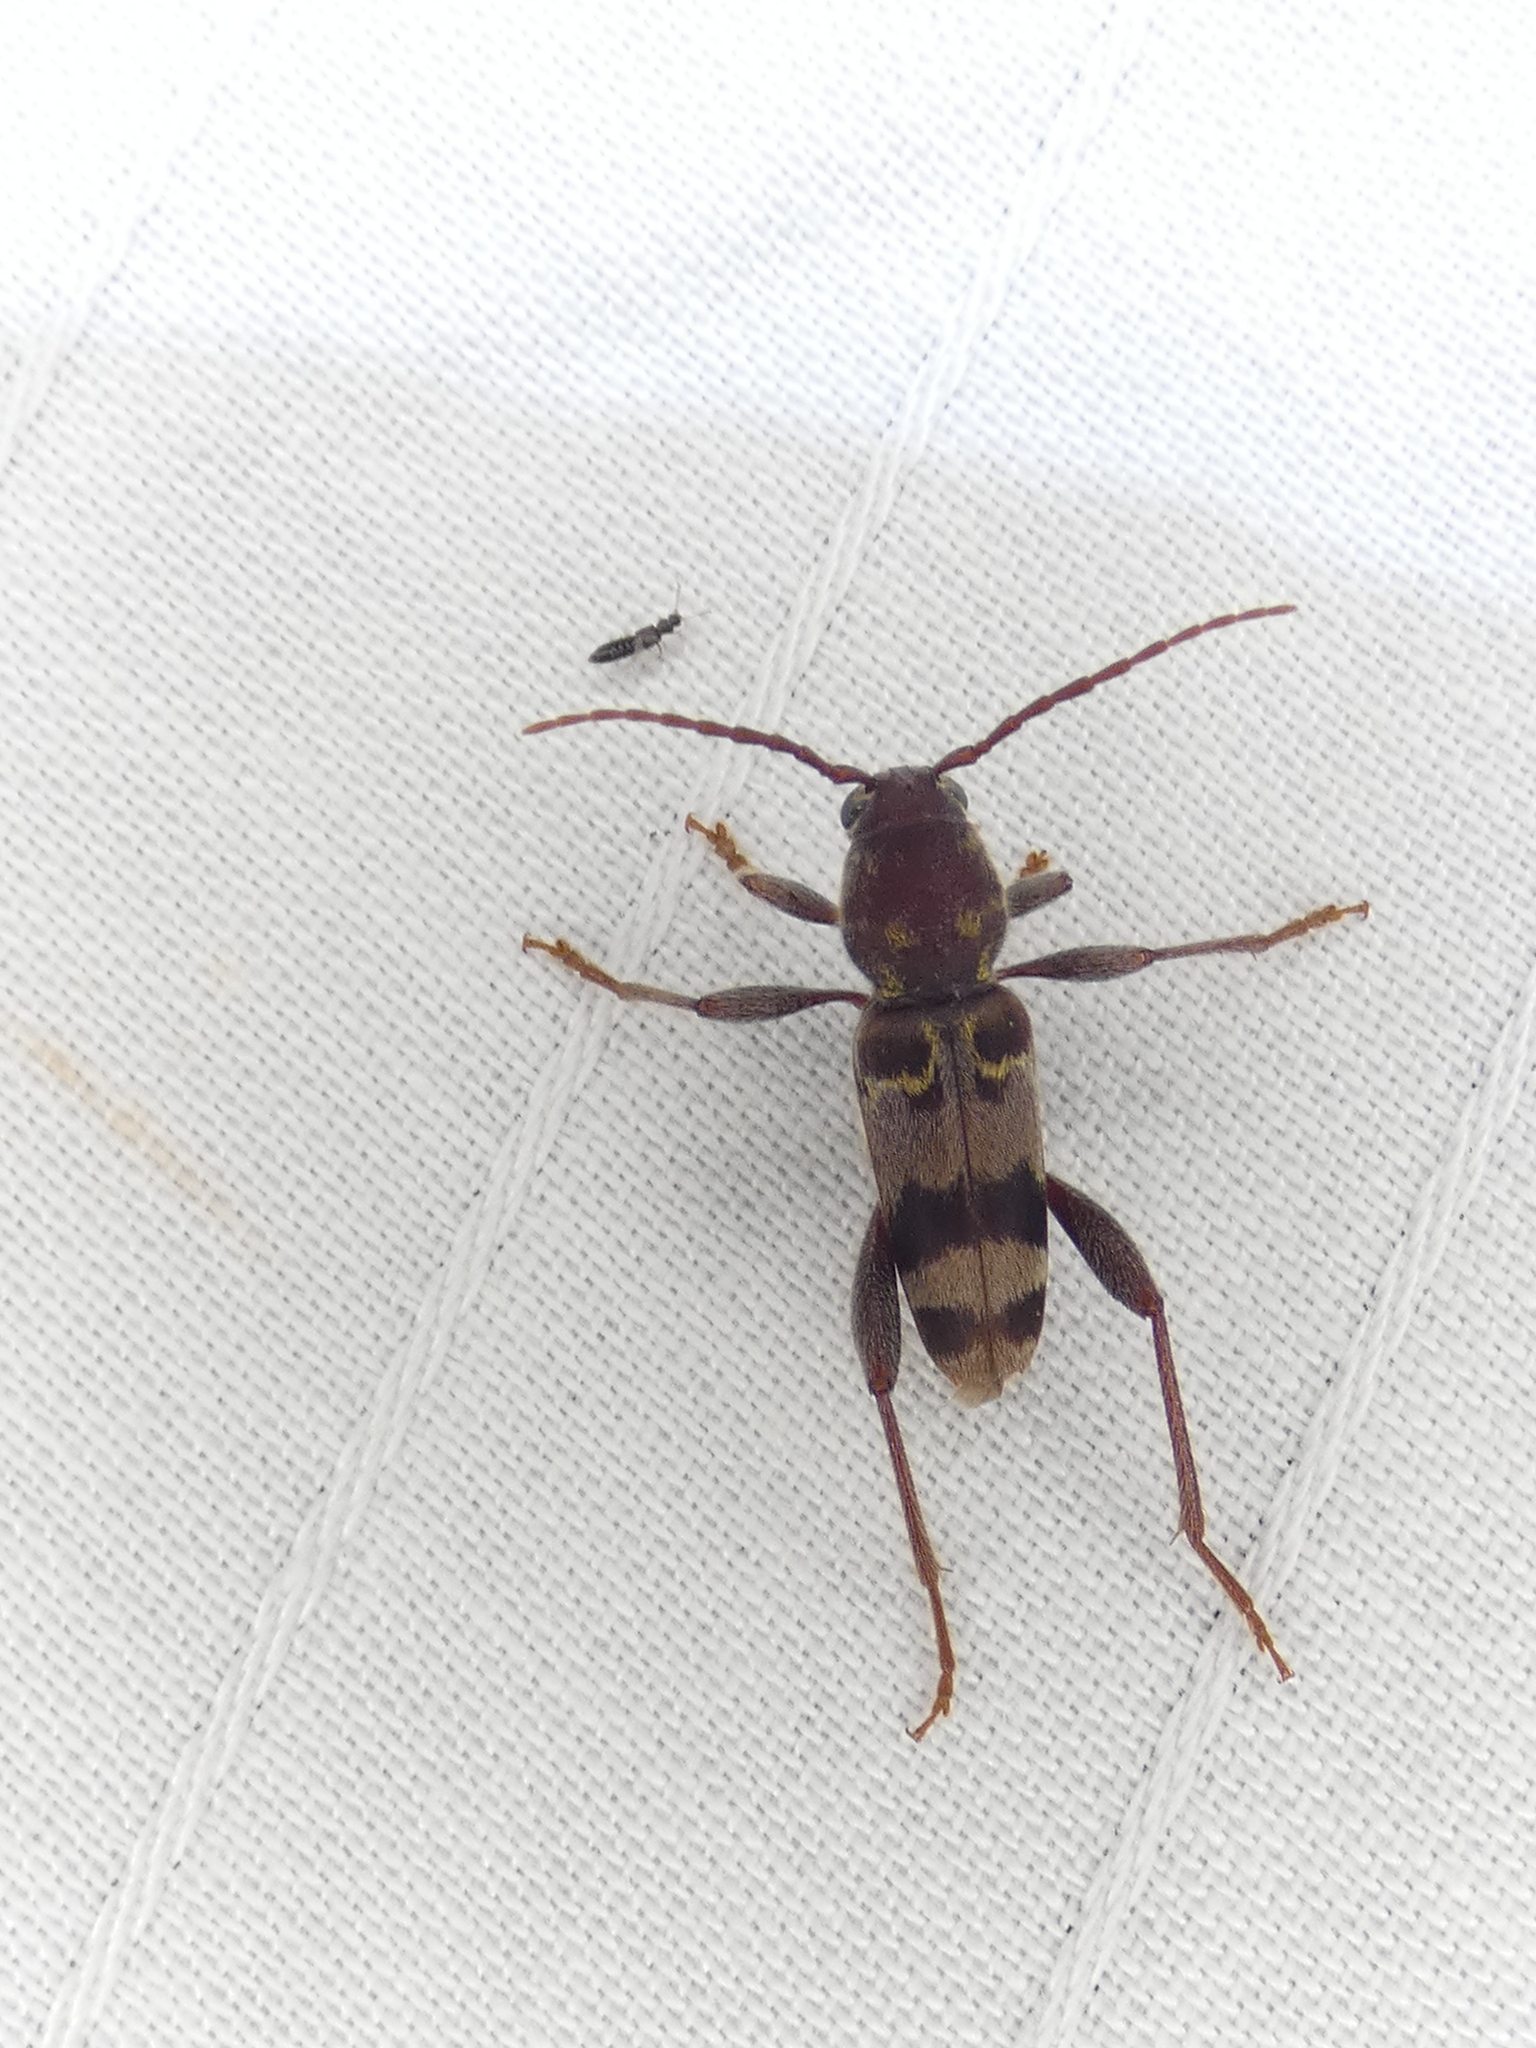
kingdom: Animalia
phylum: Arthropoda
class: Insecta
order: Coleoptera
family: Cerambycidae
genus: Xylotrechus
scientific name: Xylotrechus colonus
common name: Long-horned beetle
